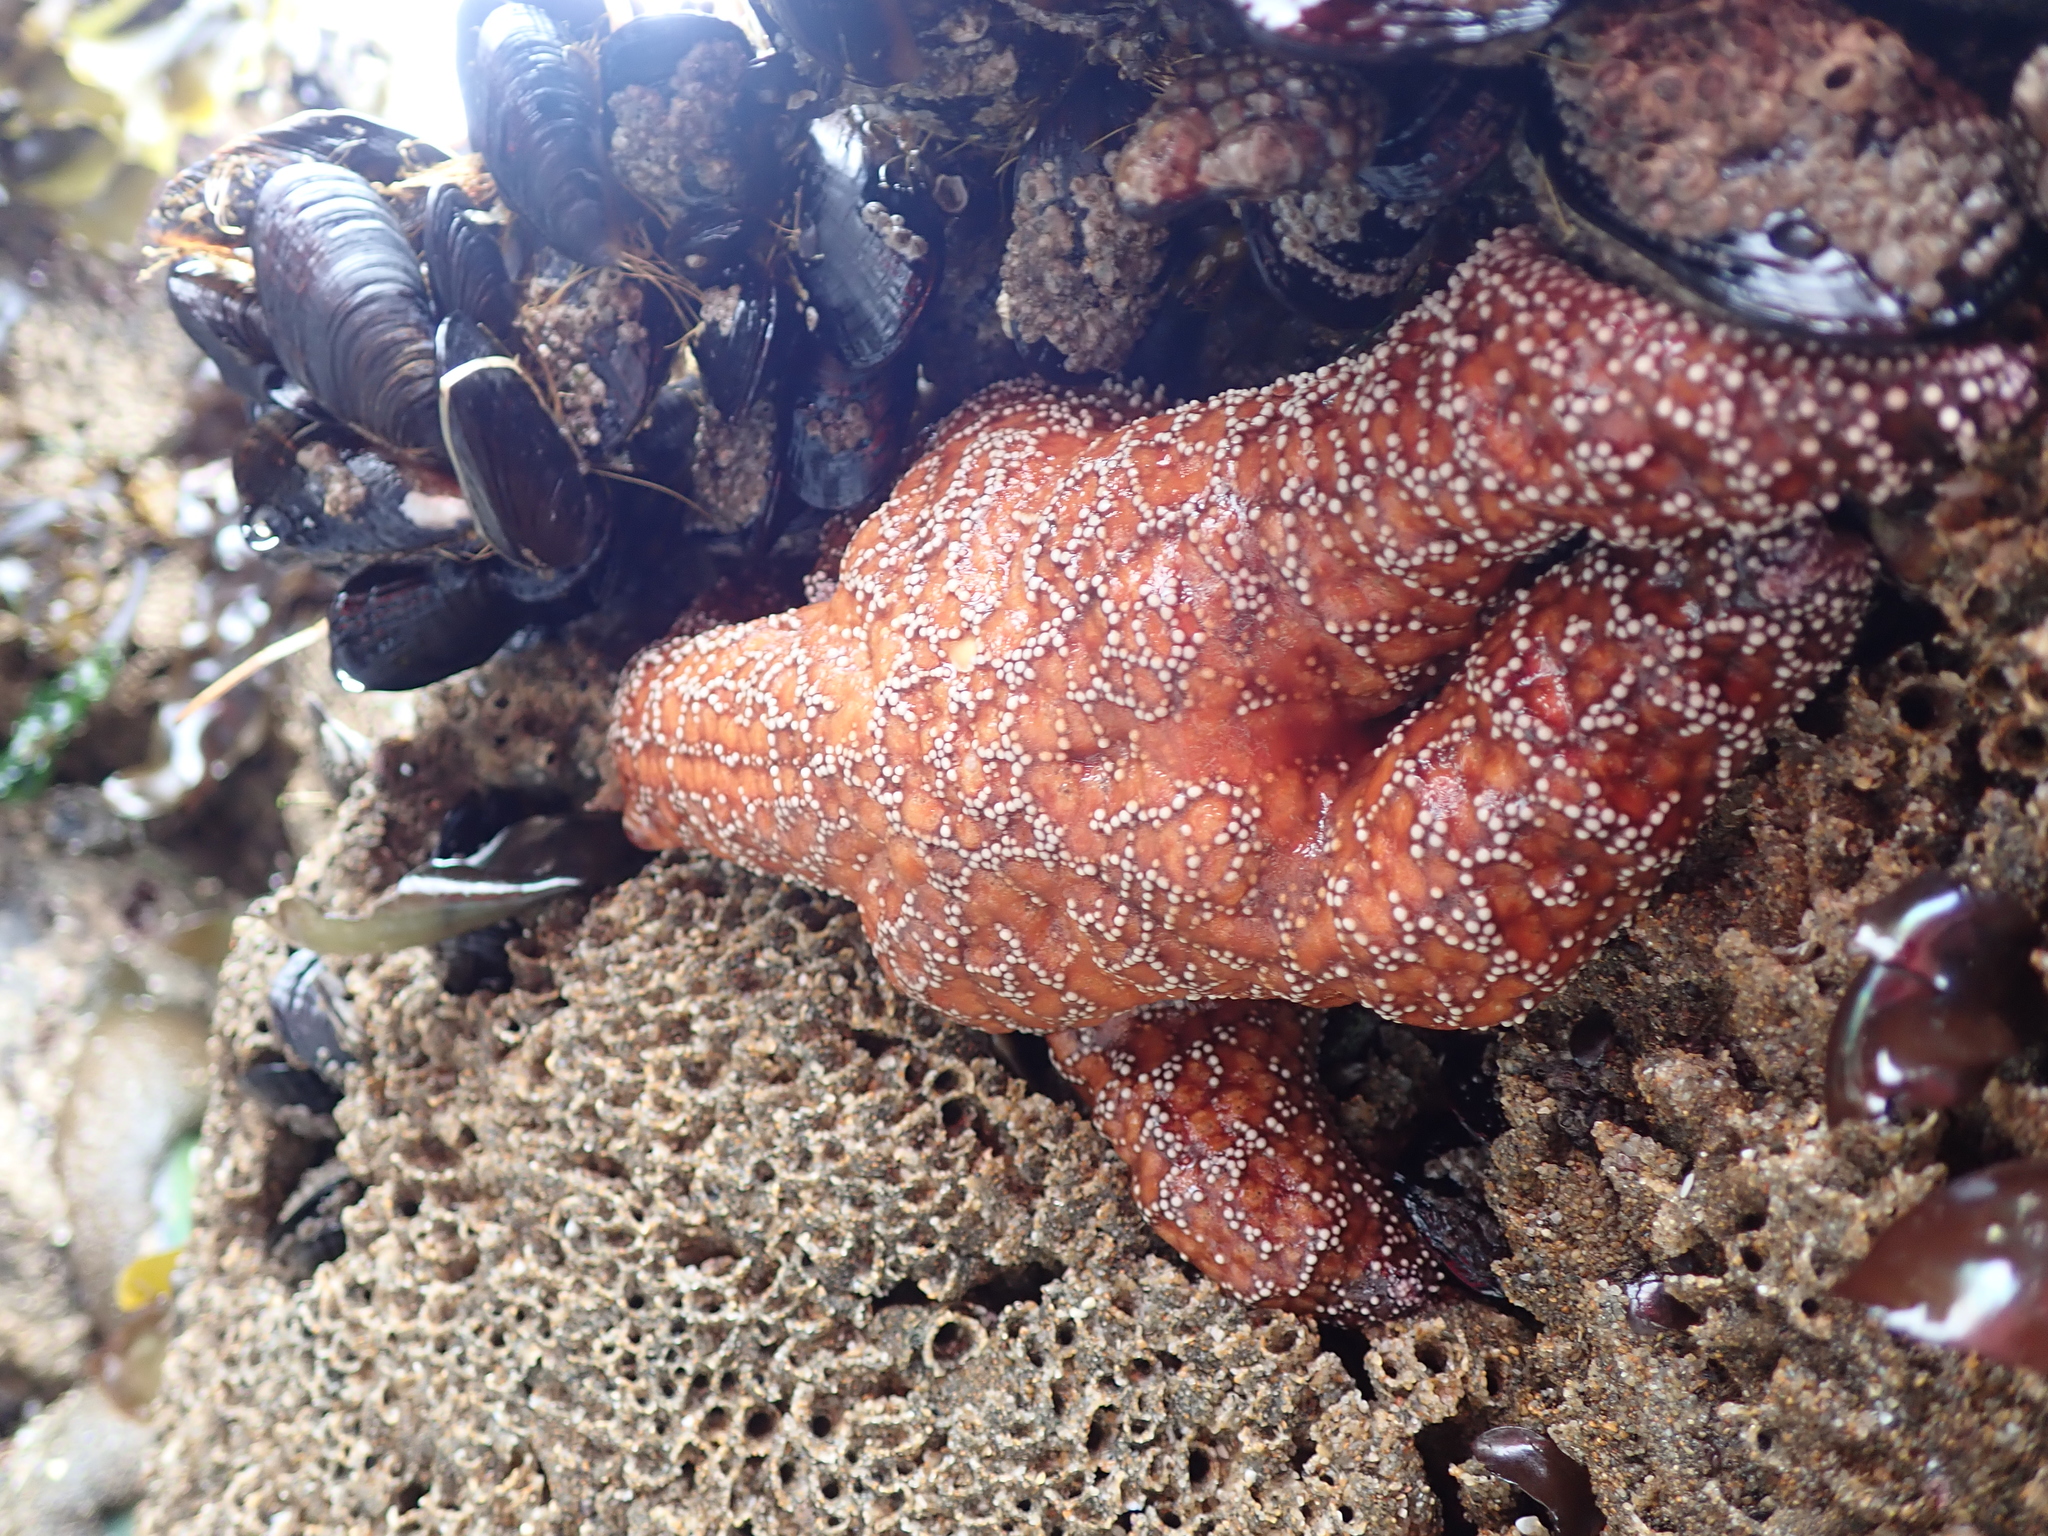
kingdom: Animalia
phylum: Echinodermata
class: Asteroidea
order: Forcipulatida
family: Asteriidae
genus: Pisaster
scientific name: Pisaster ochraceus
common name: Ochre stars
